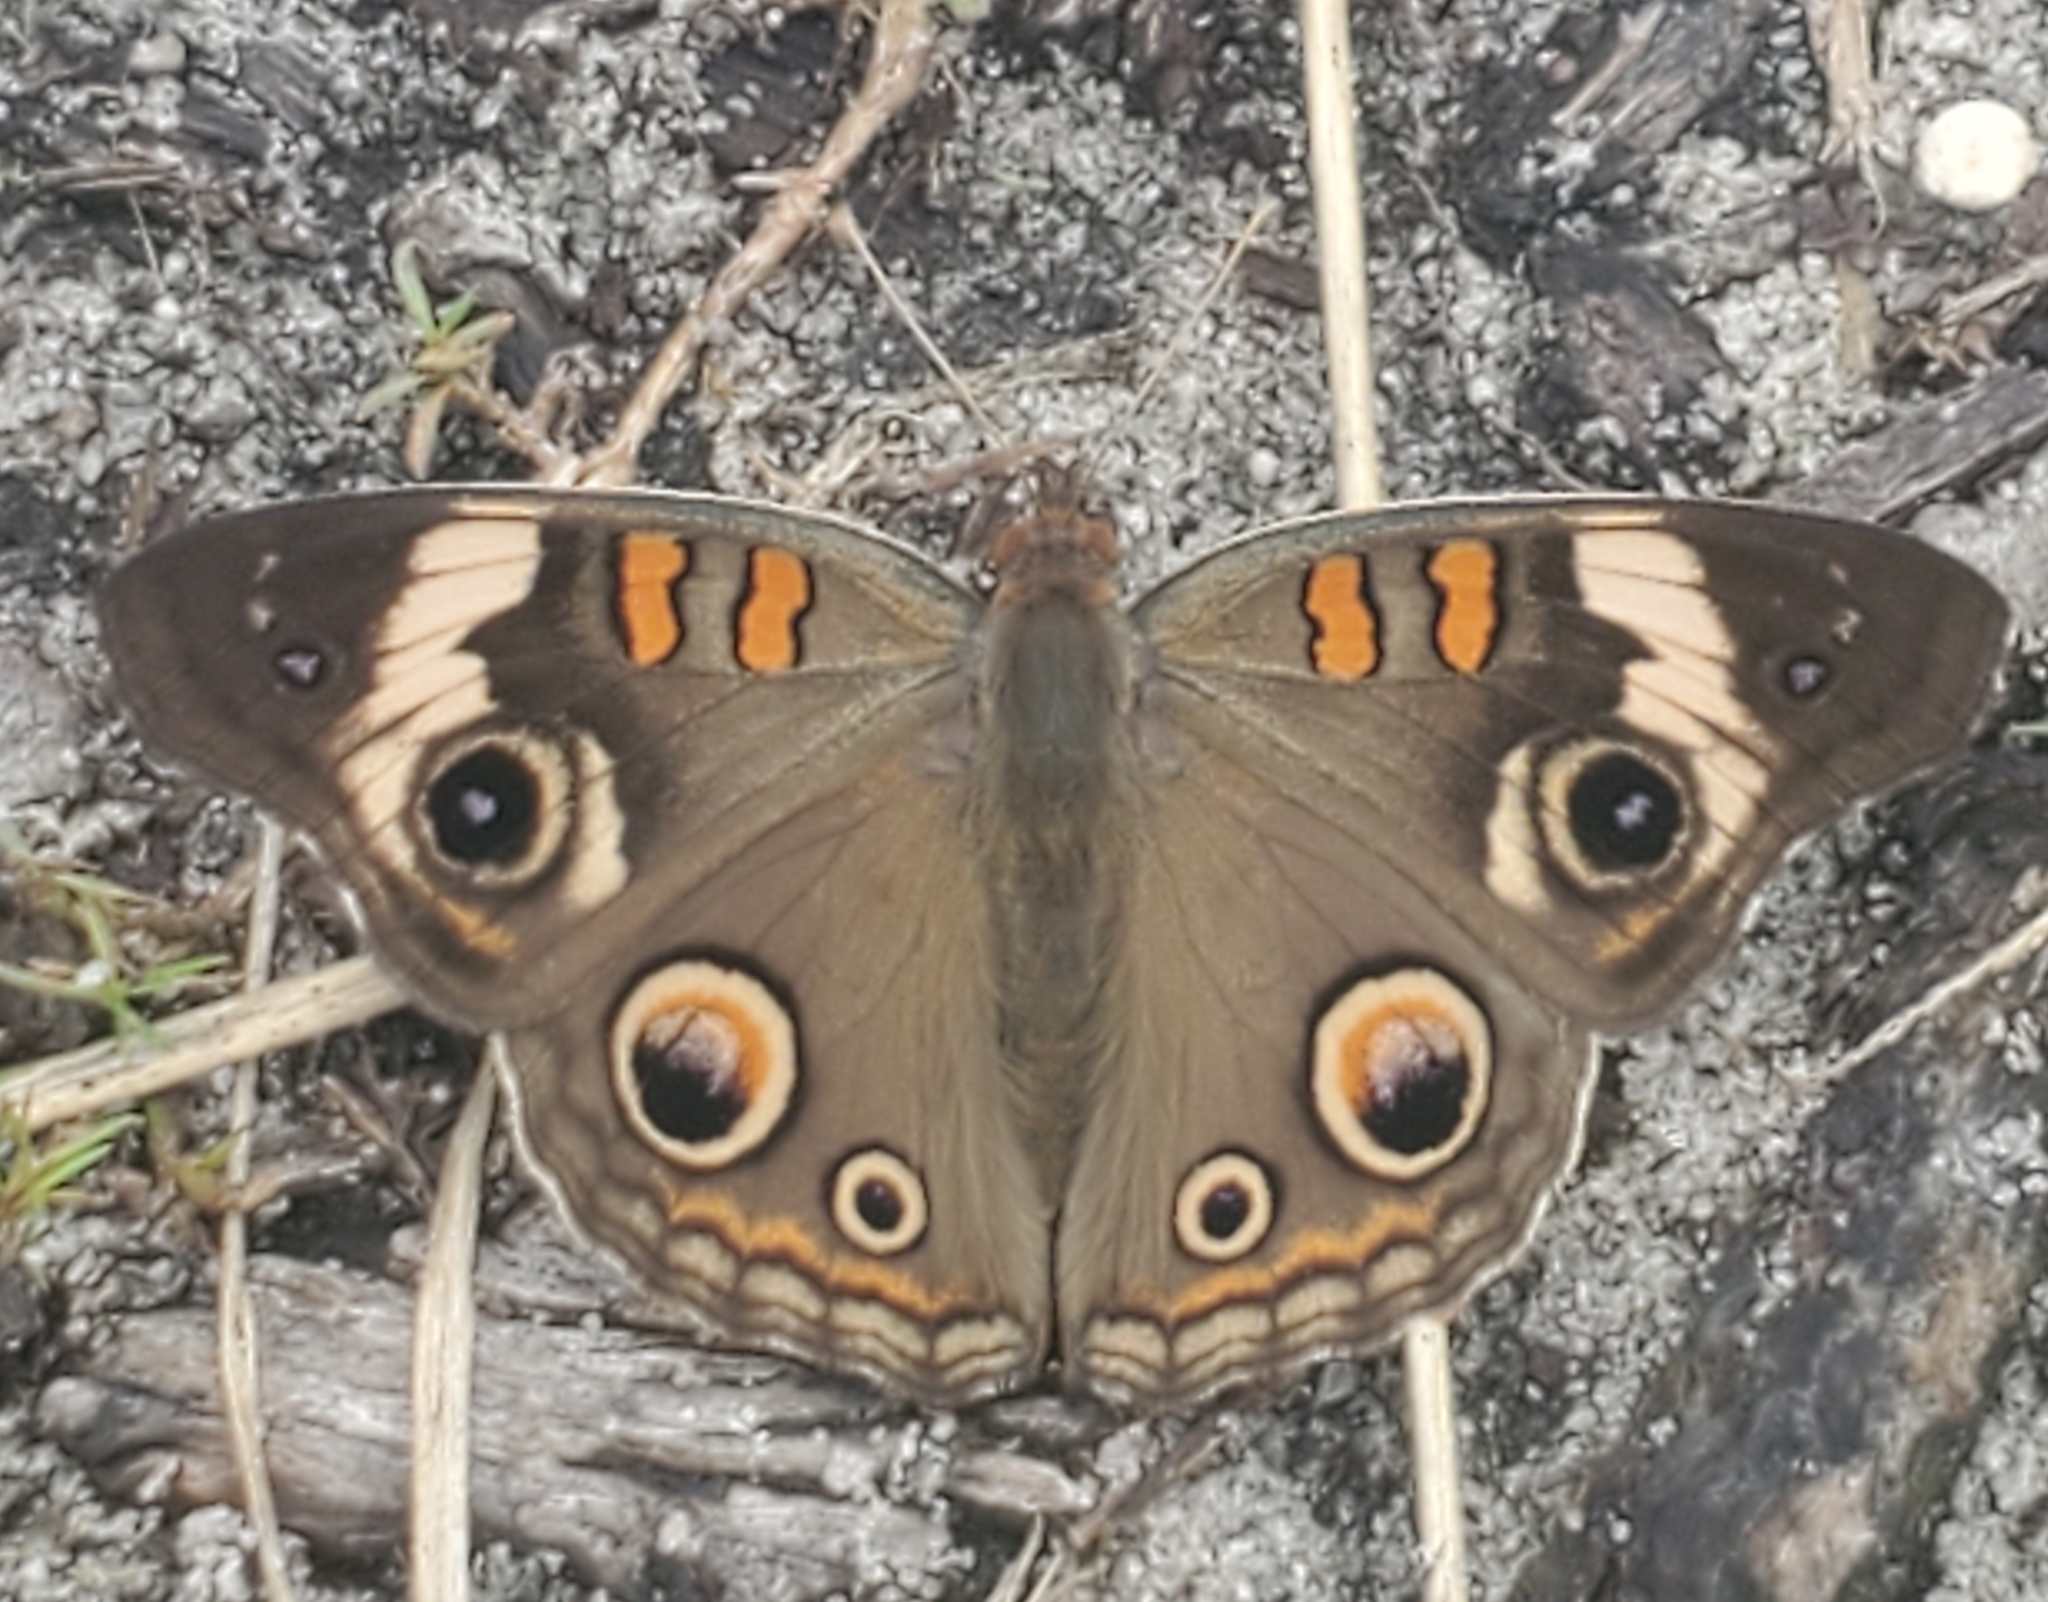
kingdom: Animalia
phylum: Arthropoda
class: Insecta
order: Lepidoptera
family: Nymphalidae
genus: Junonia
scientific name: Junonia coenia
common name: Common buckeye
